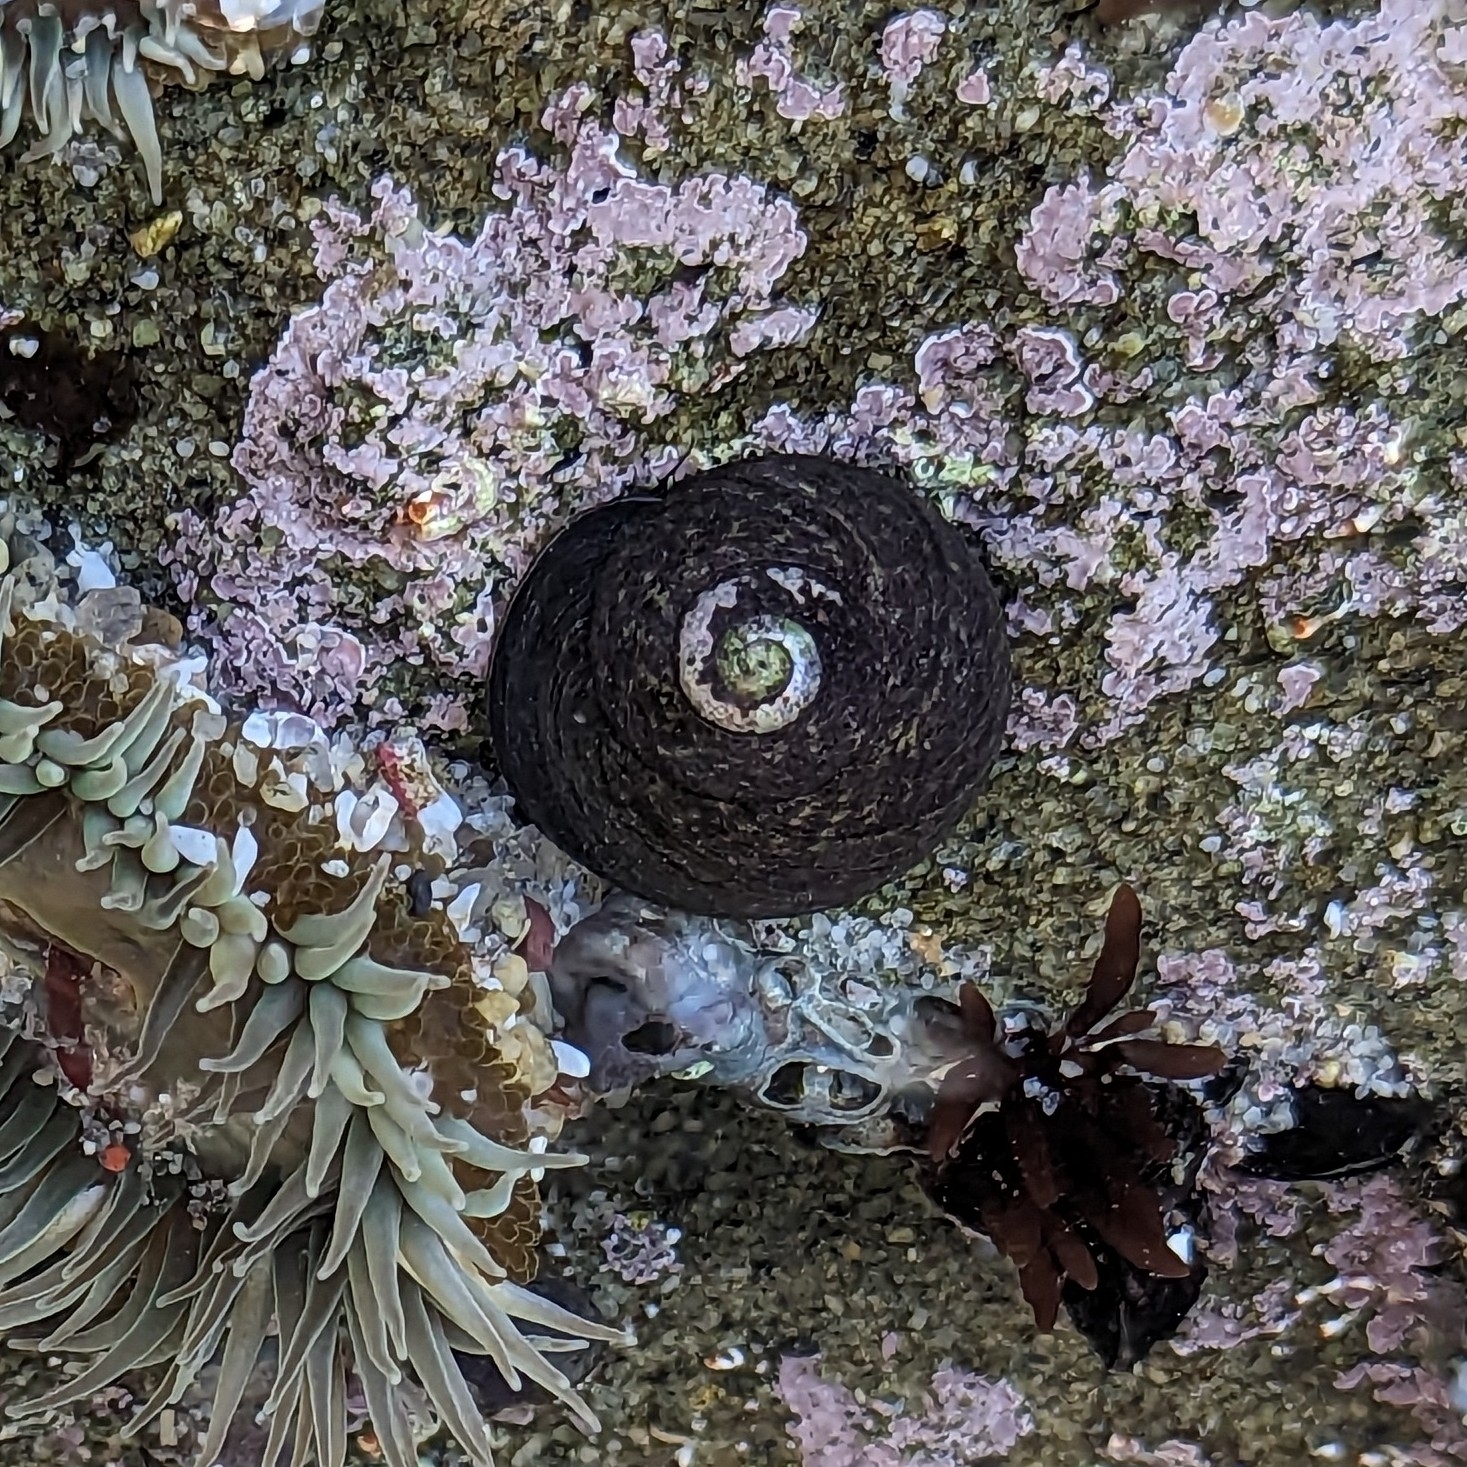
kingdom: Animalia
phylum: Mollusca
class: Gastropoda
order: Trochida
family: Tegulidae
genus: Tegula
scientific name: Tegula gallina
